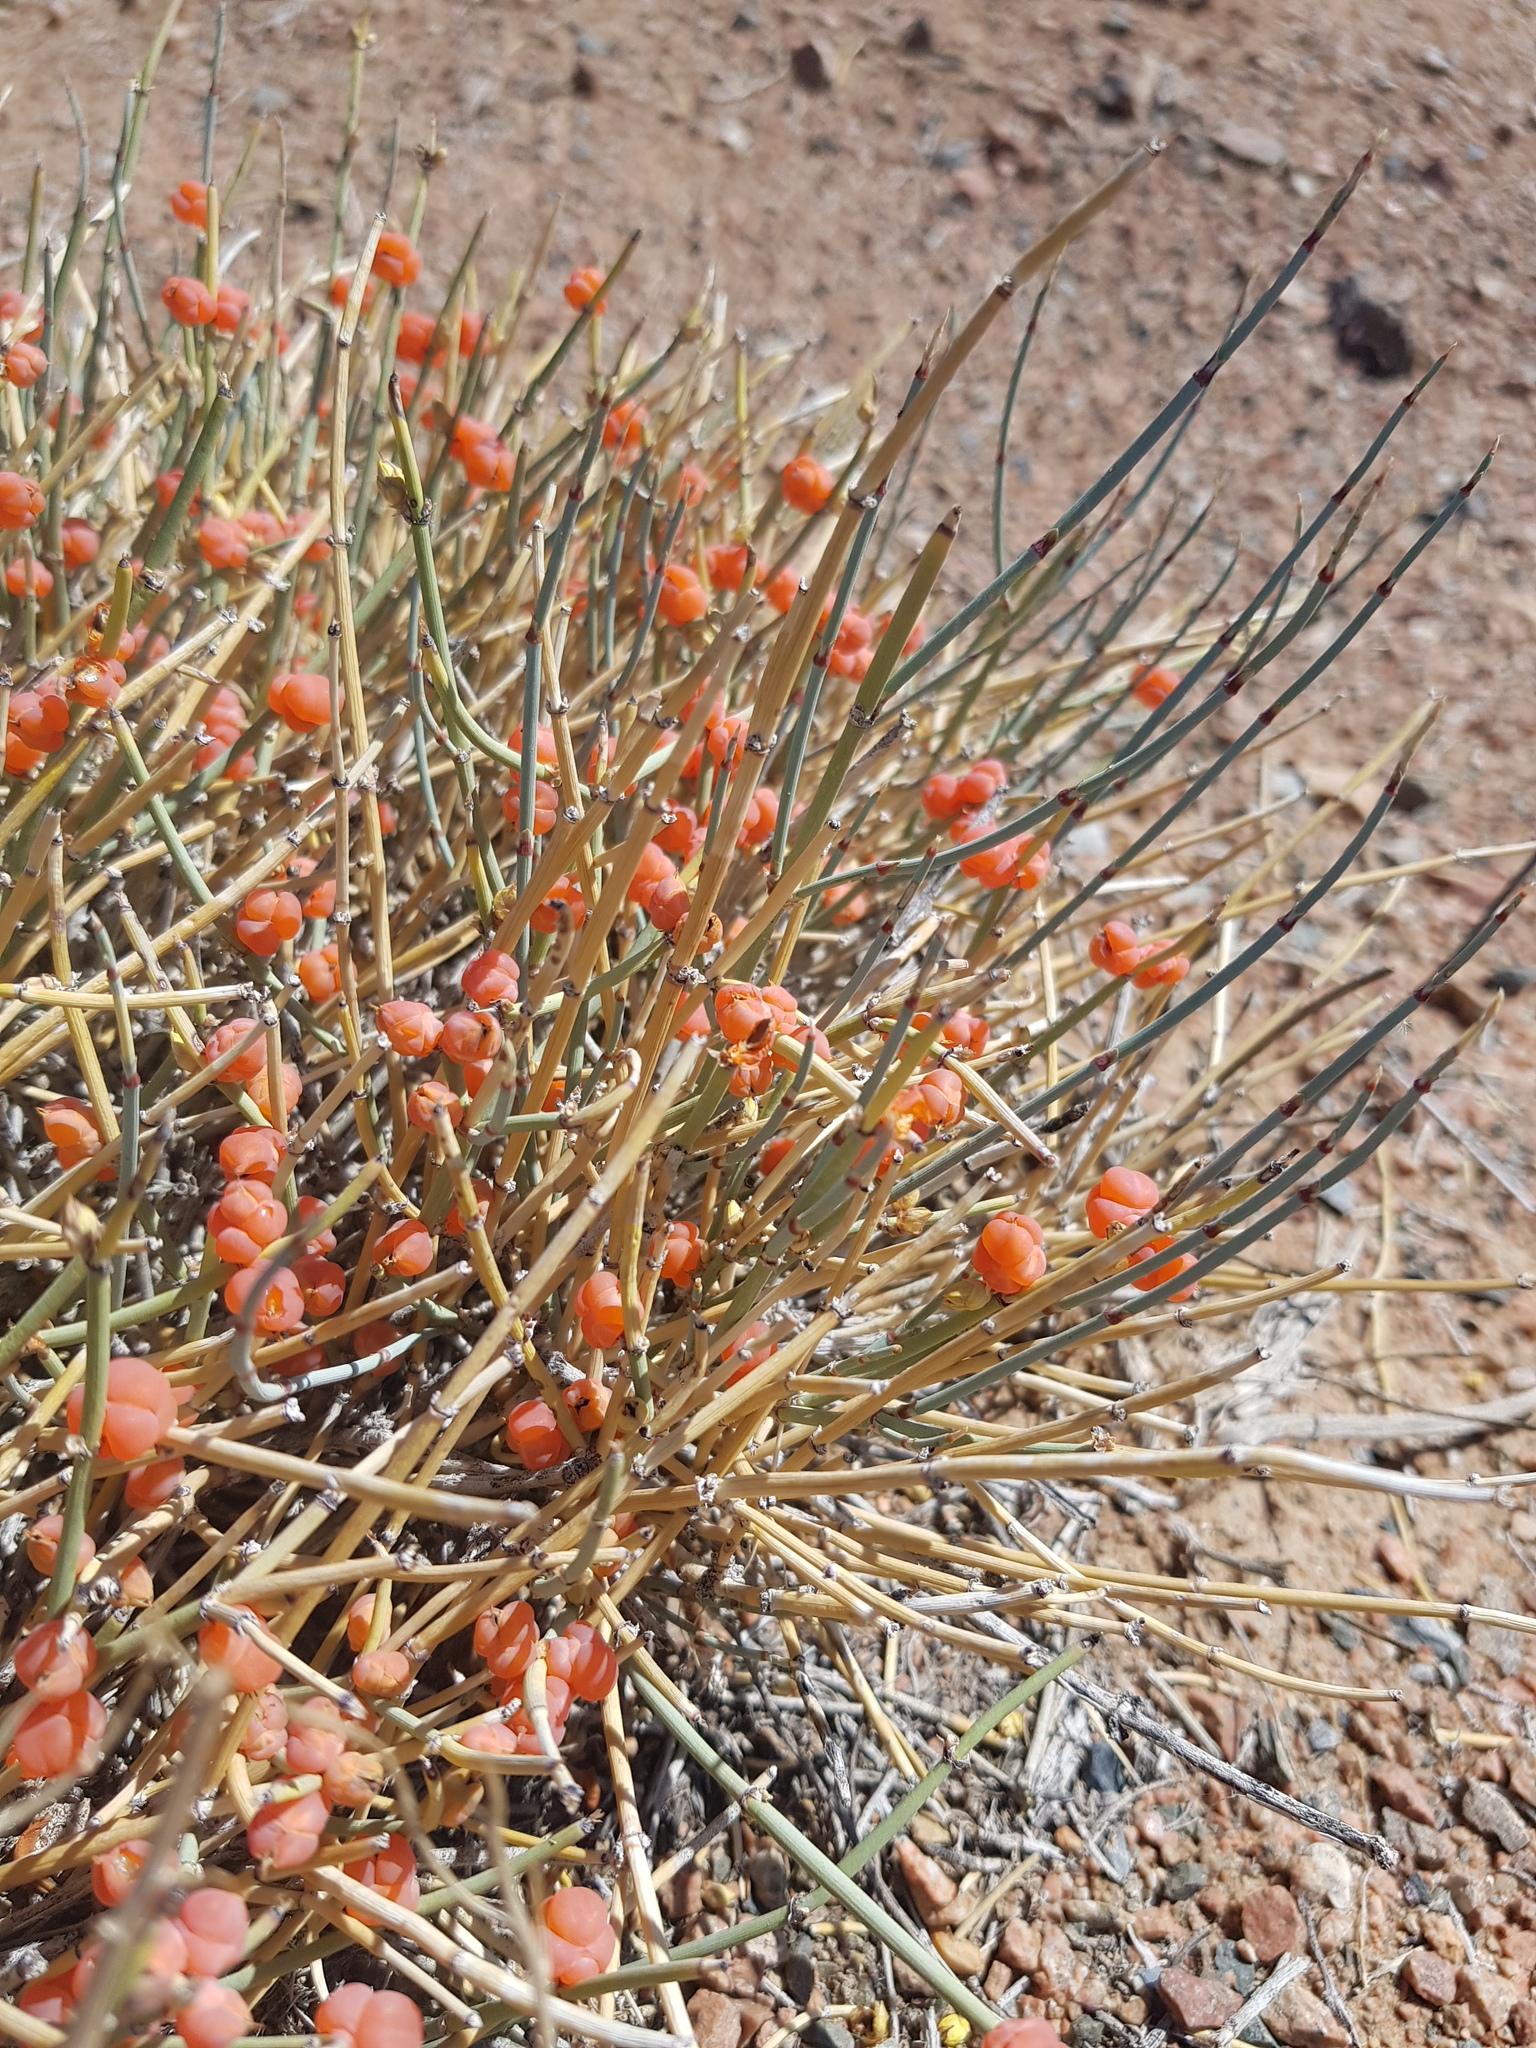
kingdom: Plantae
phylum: Tracheophyta
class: Gnetopsida
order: Ephedrales
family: Ephedraceae
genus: Ephedra
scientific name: Ephedra equisetina
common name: Mongolian ephedra
